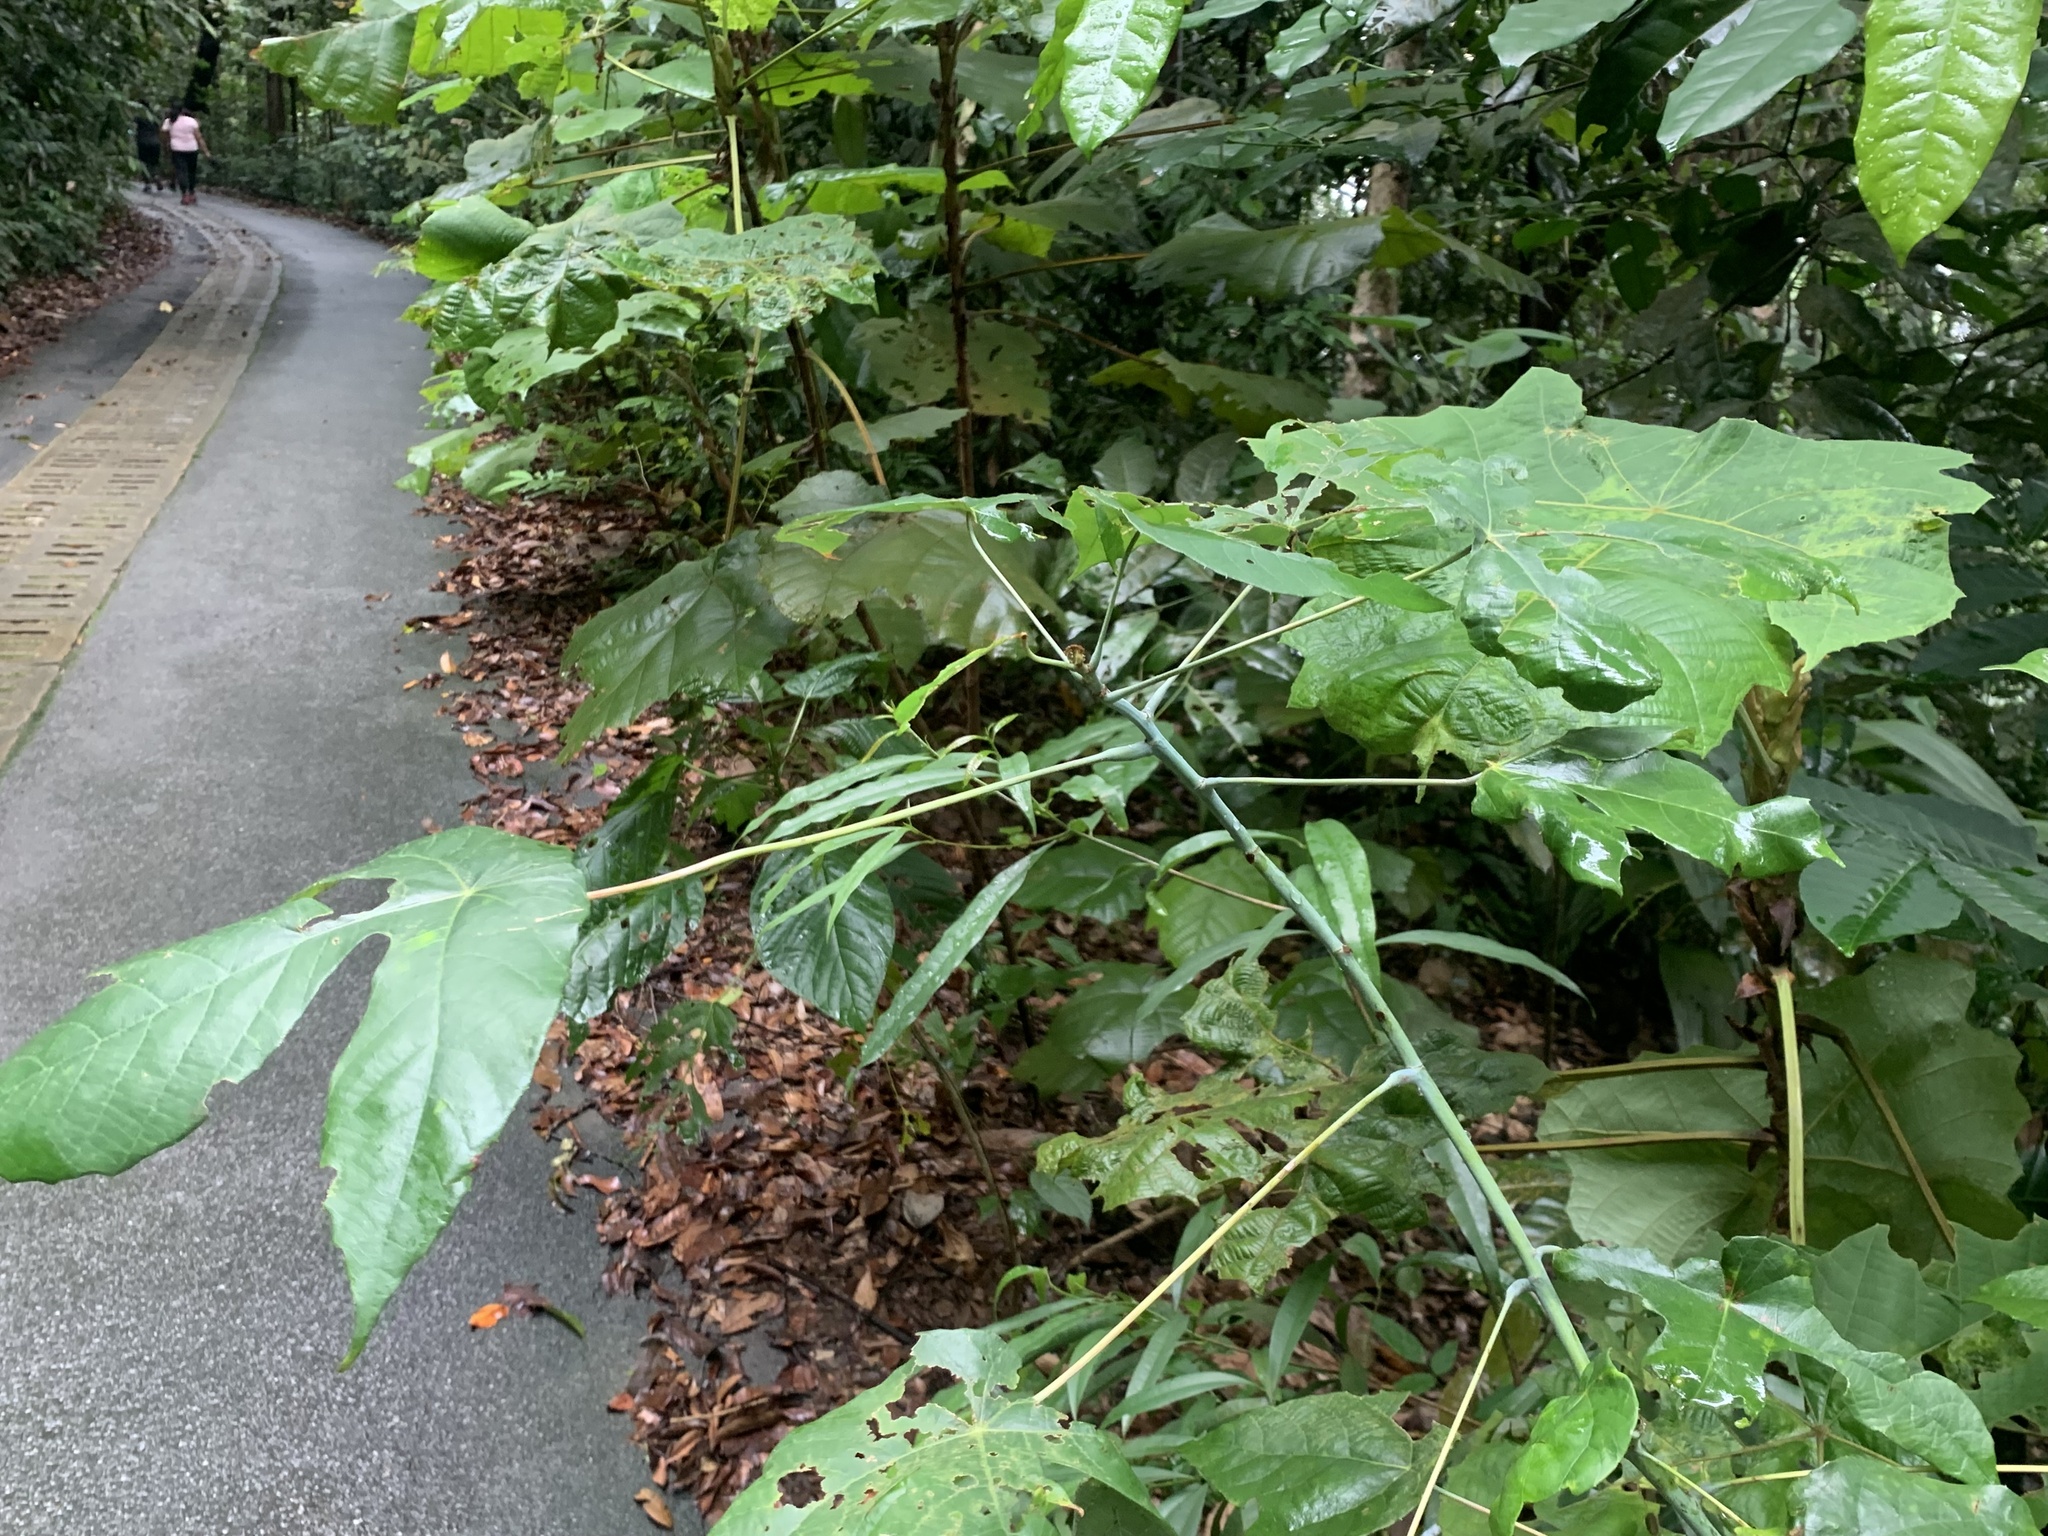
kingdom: Plantae
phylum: Tracheophyta
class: Magnoliopsida
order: Malpighiales
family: Euphorbiaceae
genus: Macaranga
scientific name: Macaranga hypoleuca
